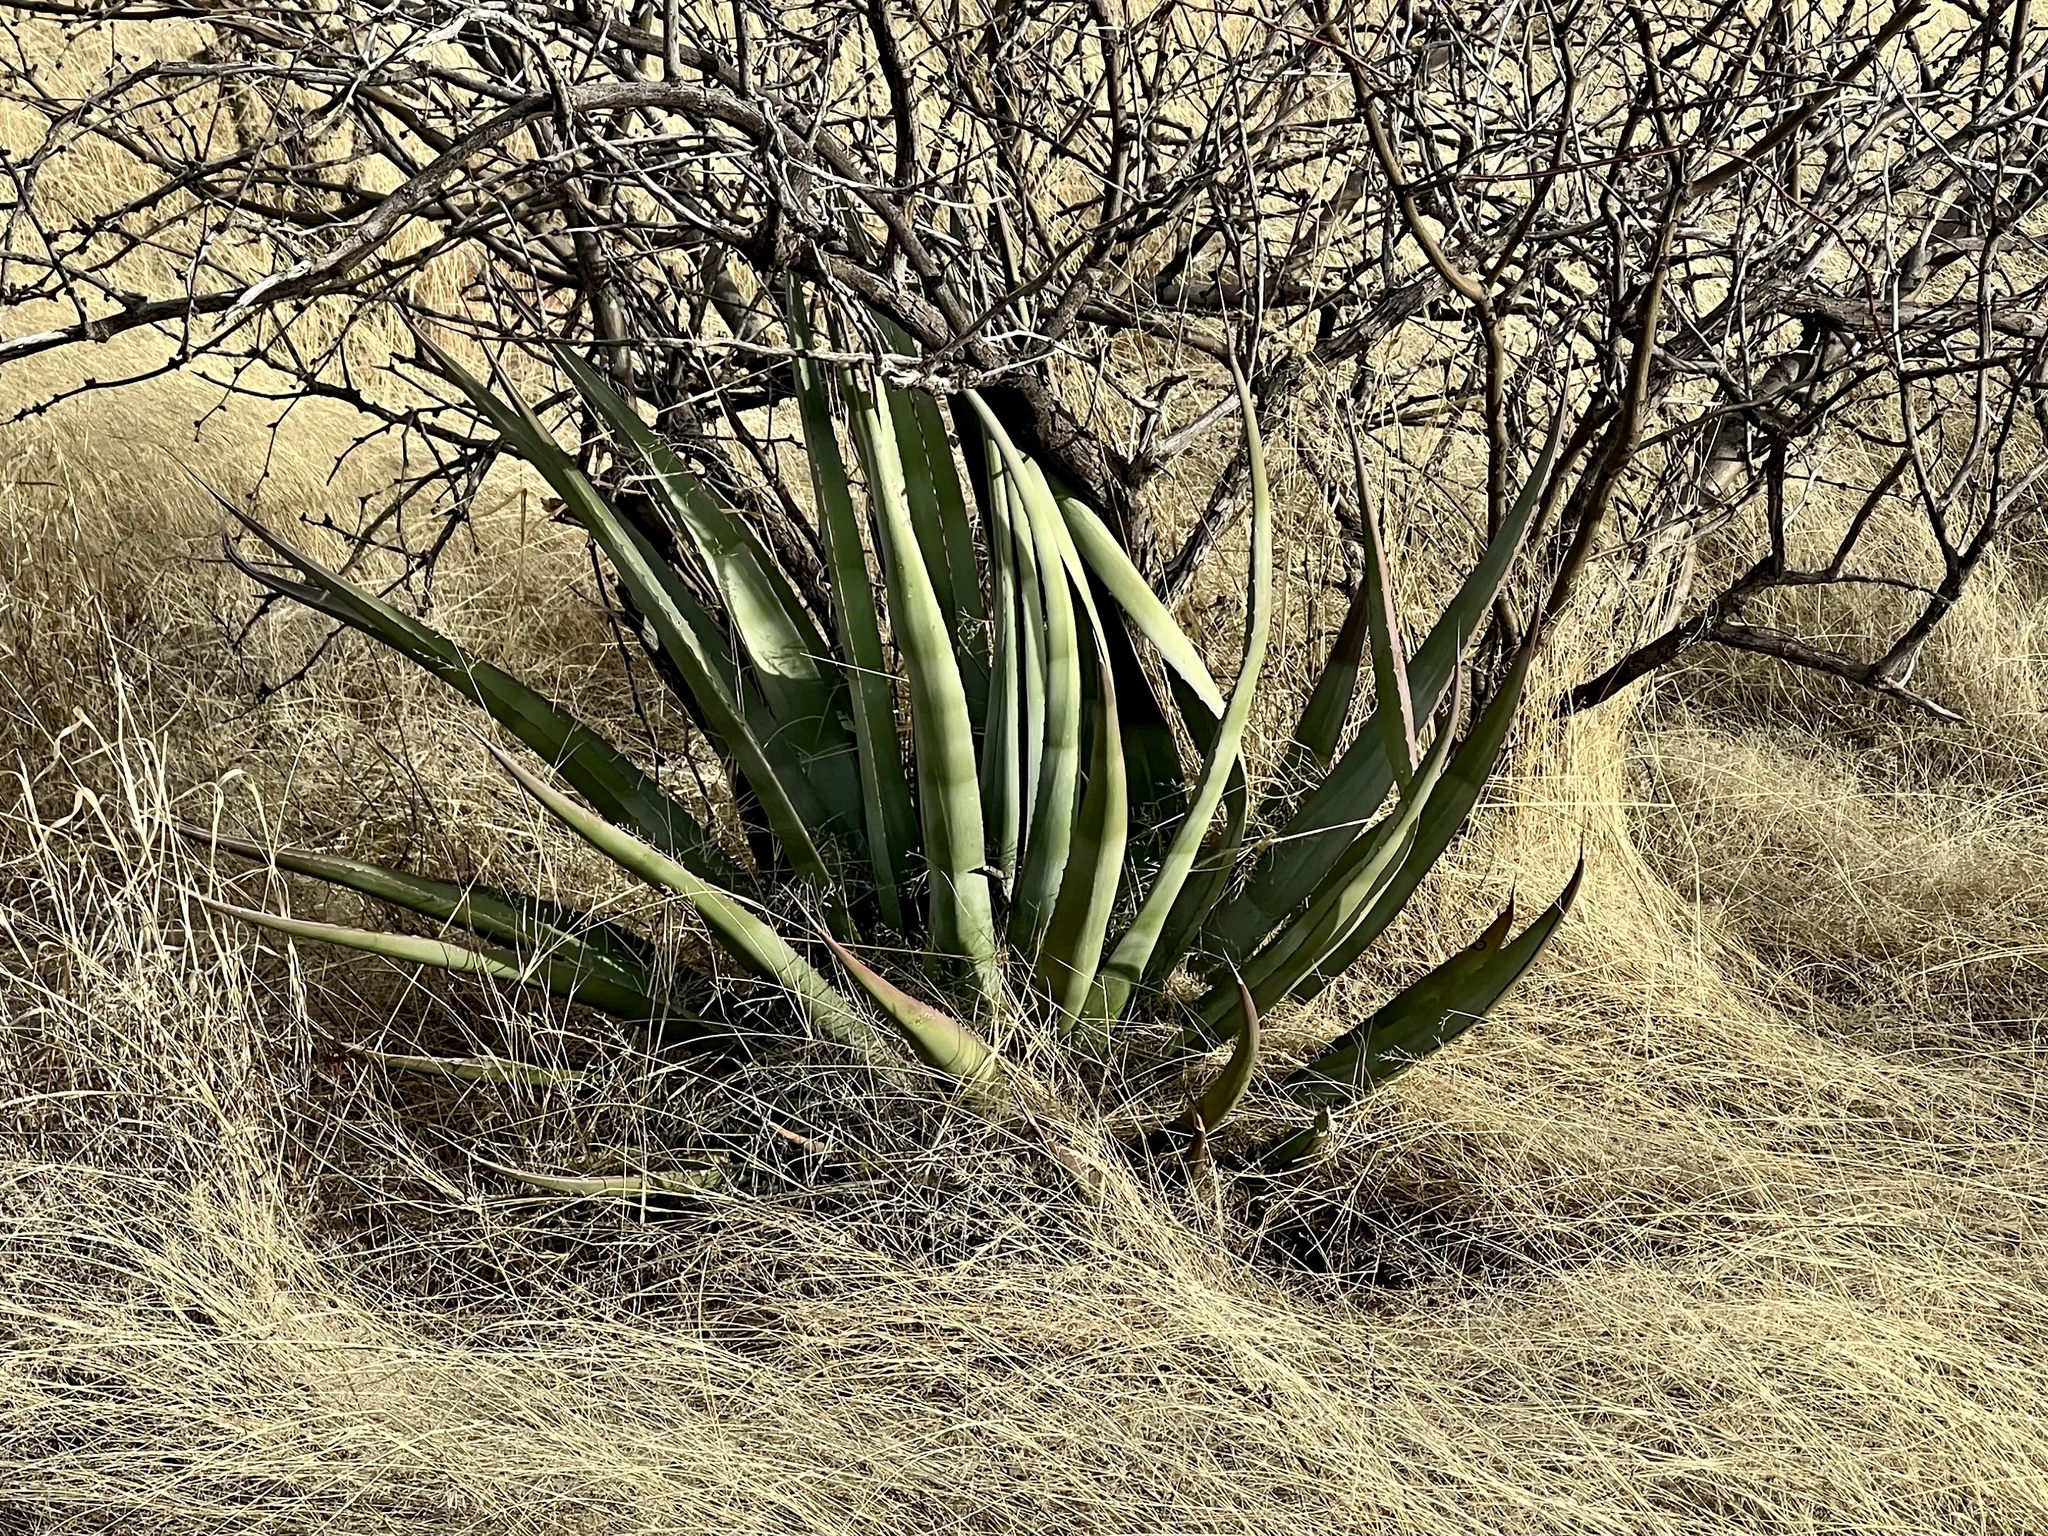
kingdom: Plantae
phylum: Tracheophyta
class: Liliopsida
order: Asparagales
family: Asparagaceae
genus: Agave
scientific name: Agave palmeri
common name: Palmer agave
